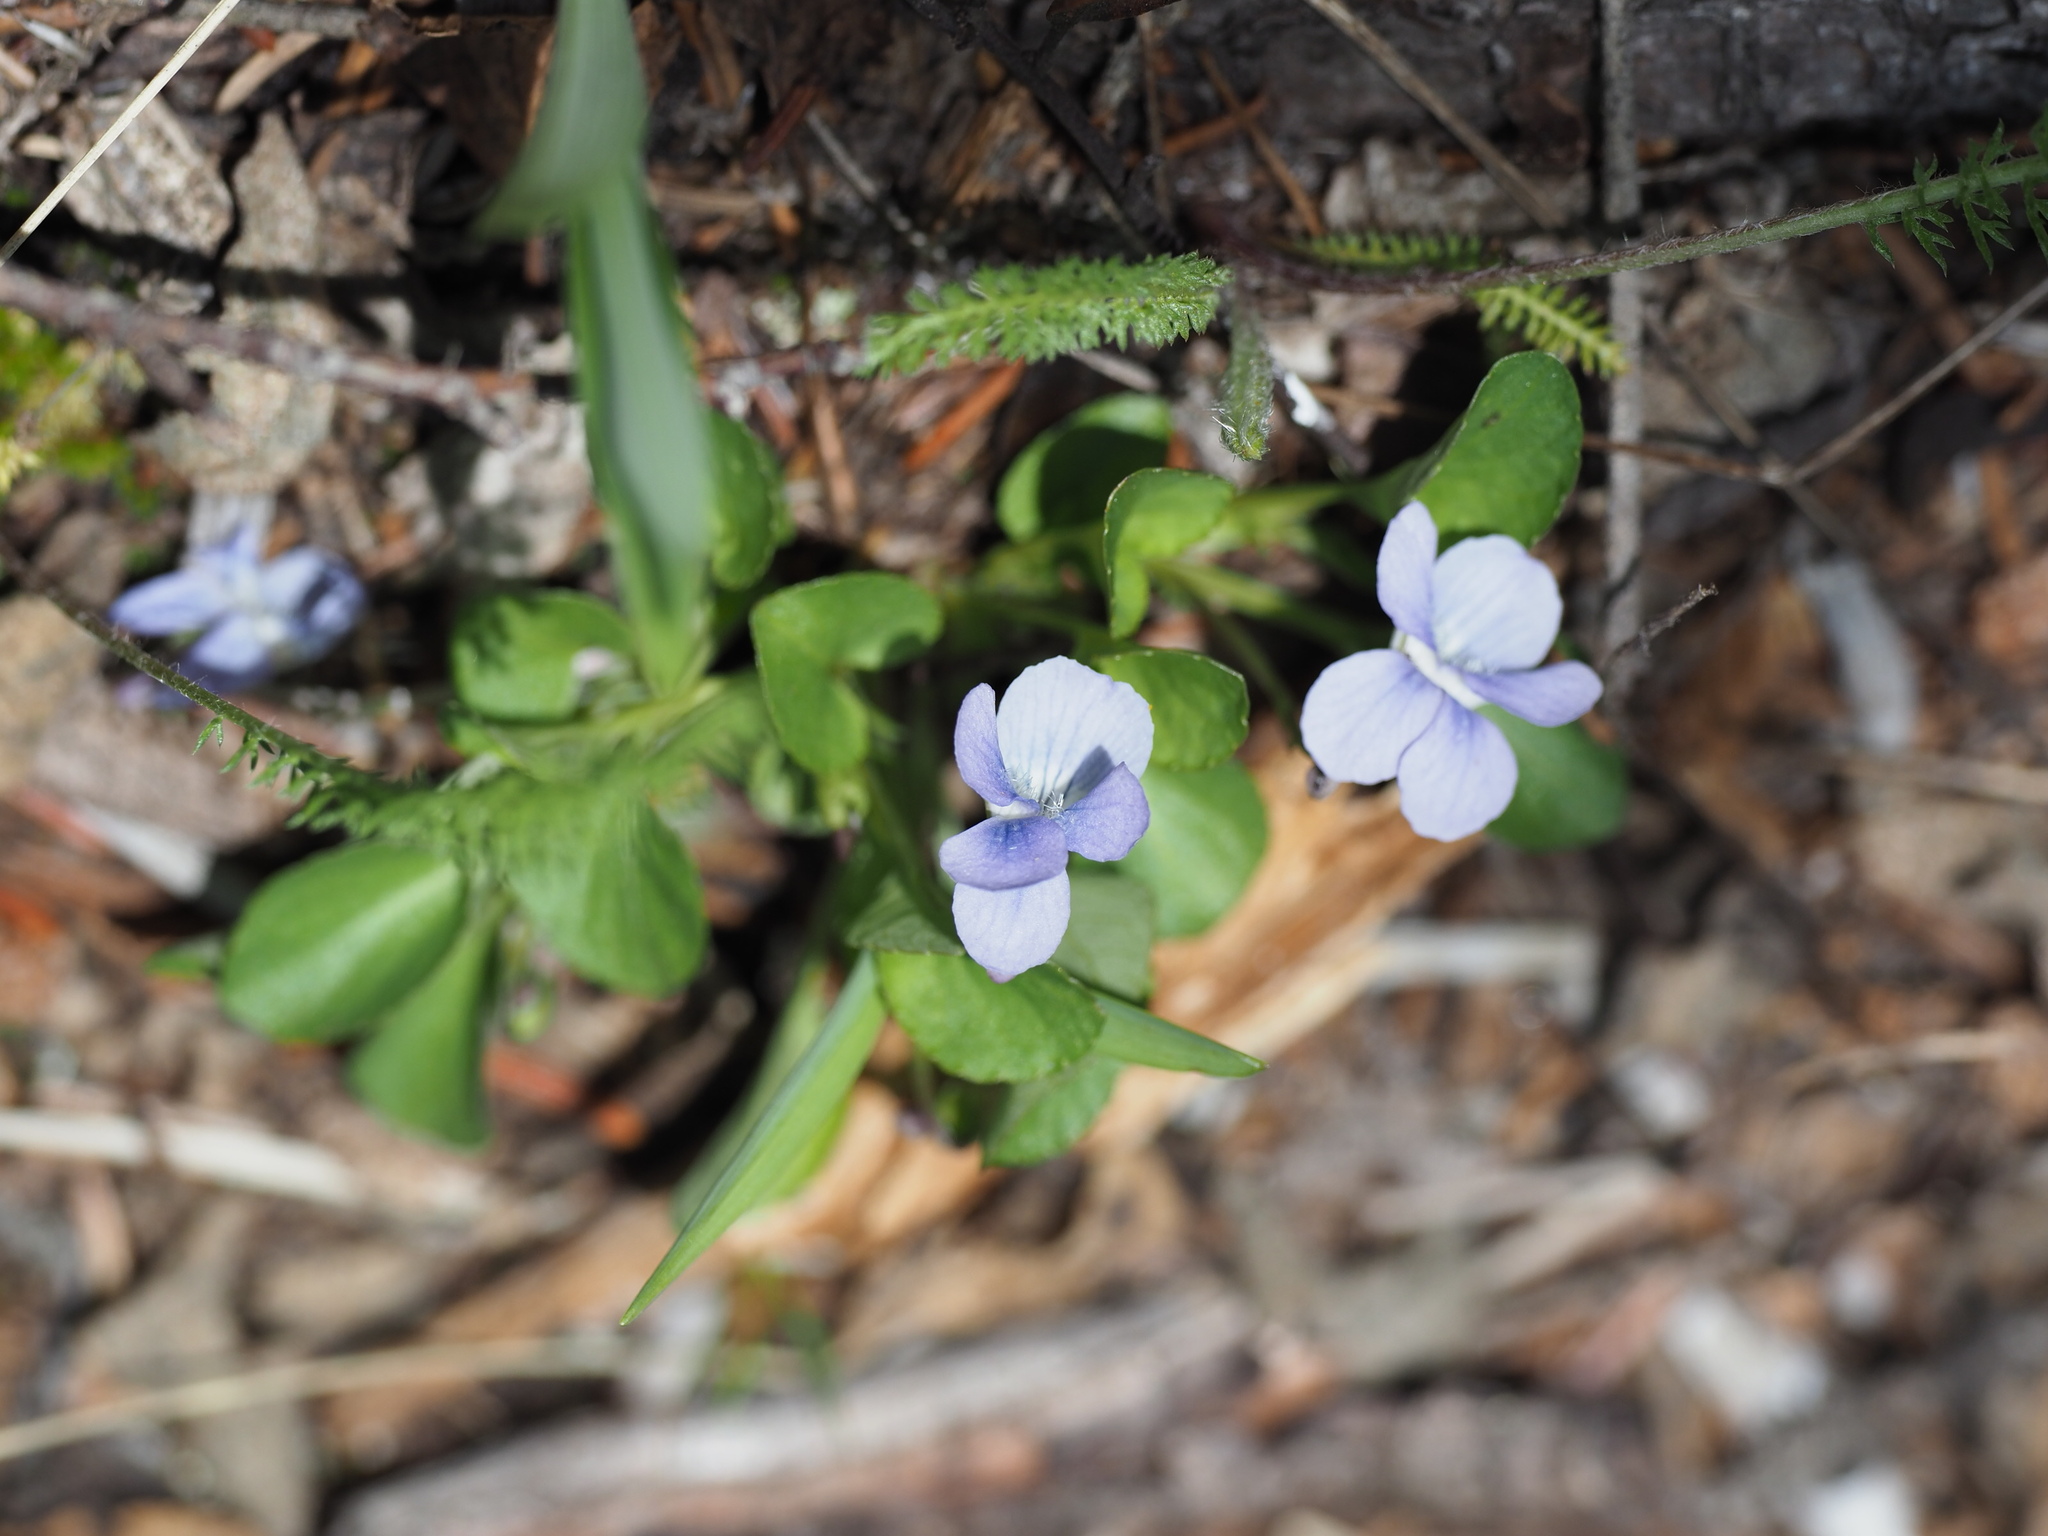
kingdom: Plantae
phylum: Tracheophyta
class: Magnoliopsida
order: Malpighiales
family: Violaceae
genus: Viola
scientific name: Viola adunca
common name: Sand violet
